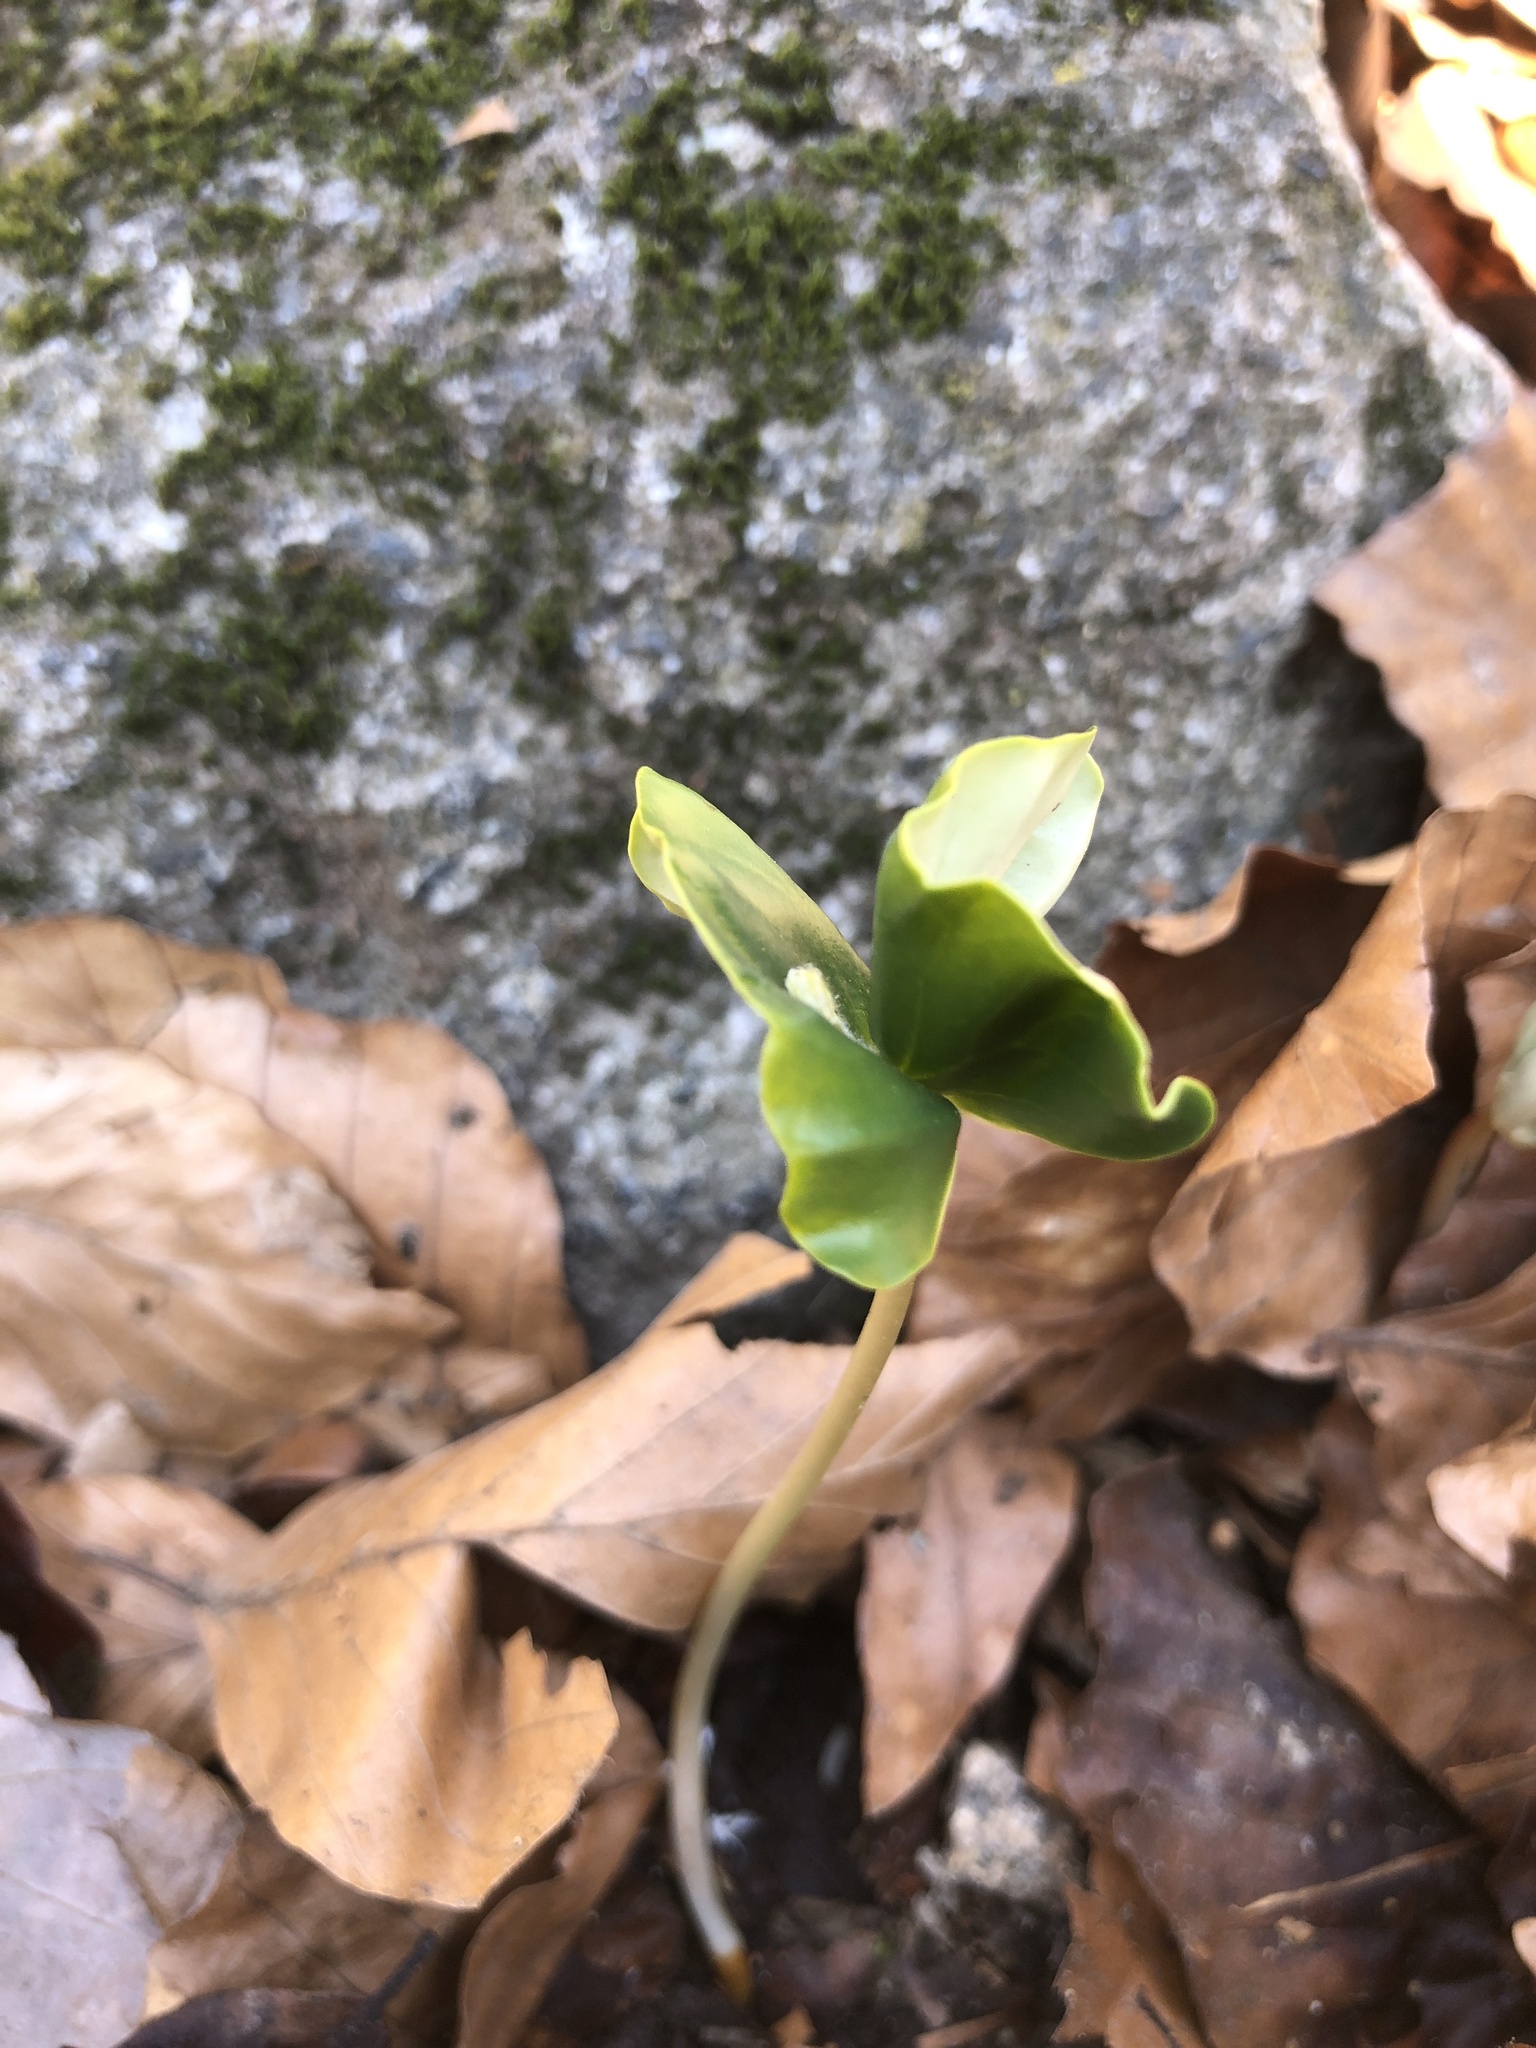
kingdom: Plantae
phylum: Tracheophyta
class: Magnoliopsida
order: Fagales
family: Fagaceae
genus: Fagus
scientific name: Fagus sylvatica
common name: Beech
